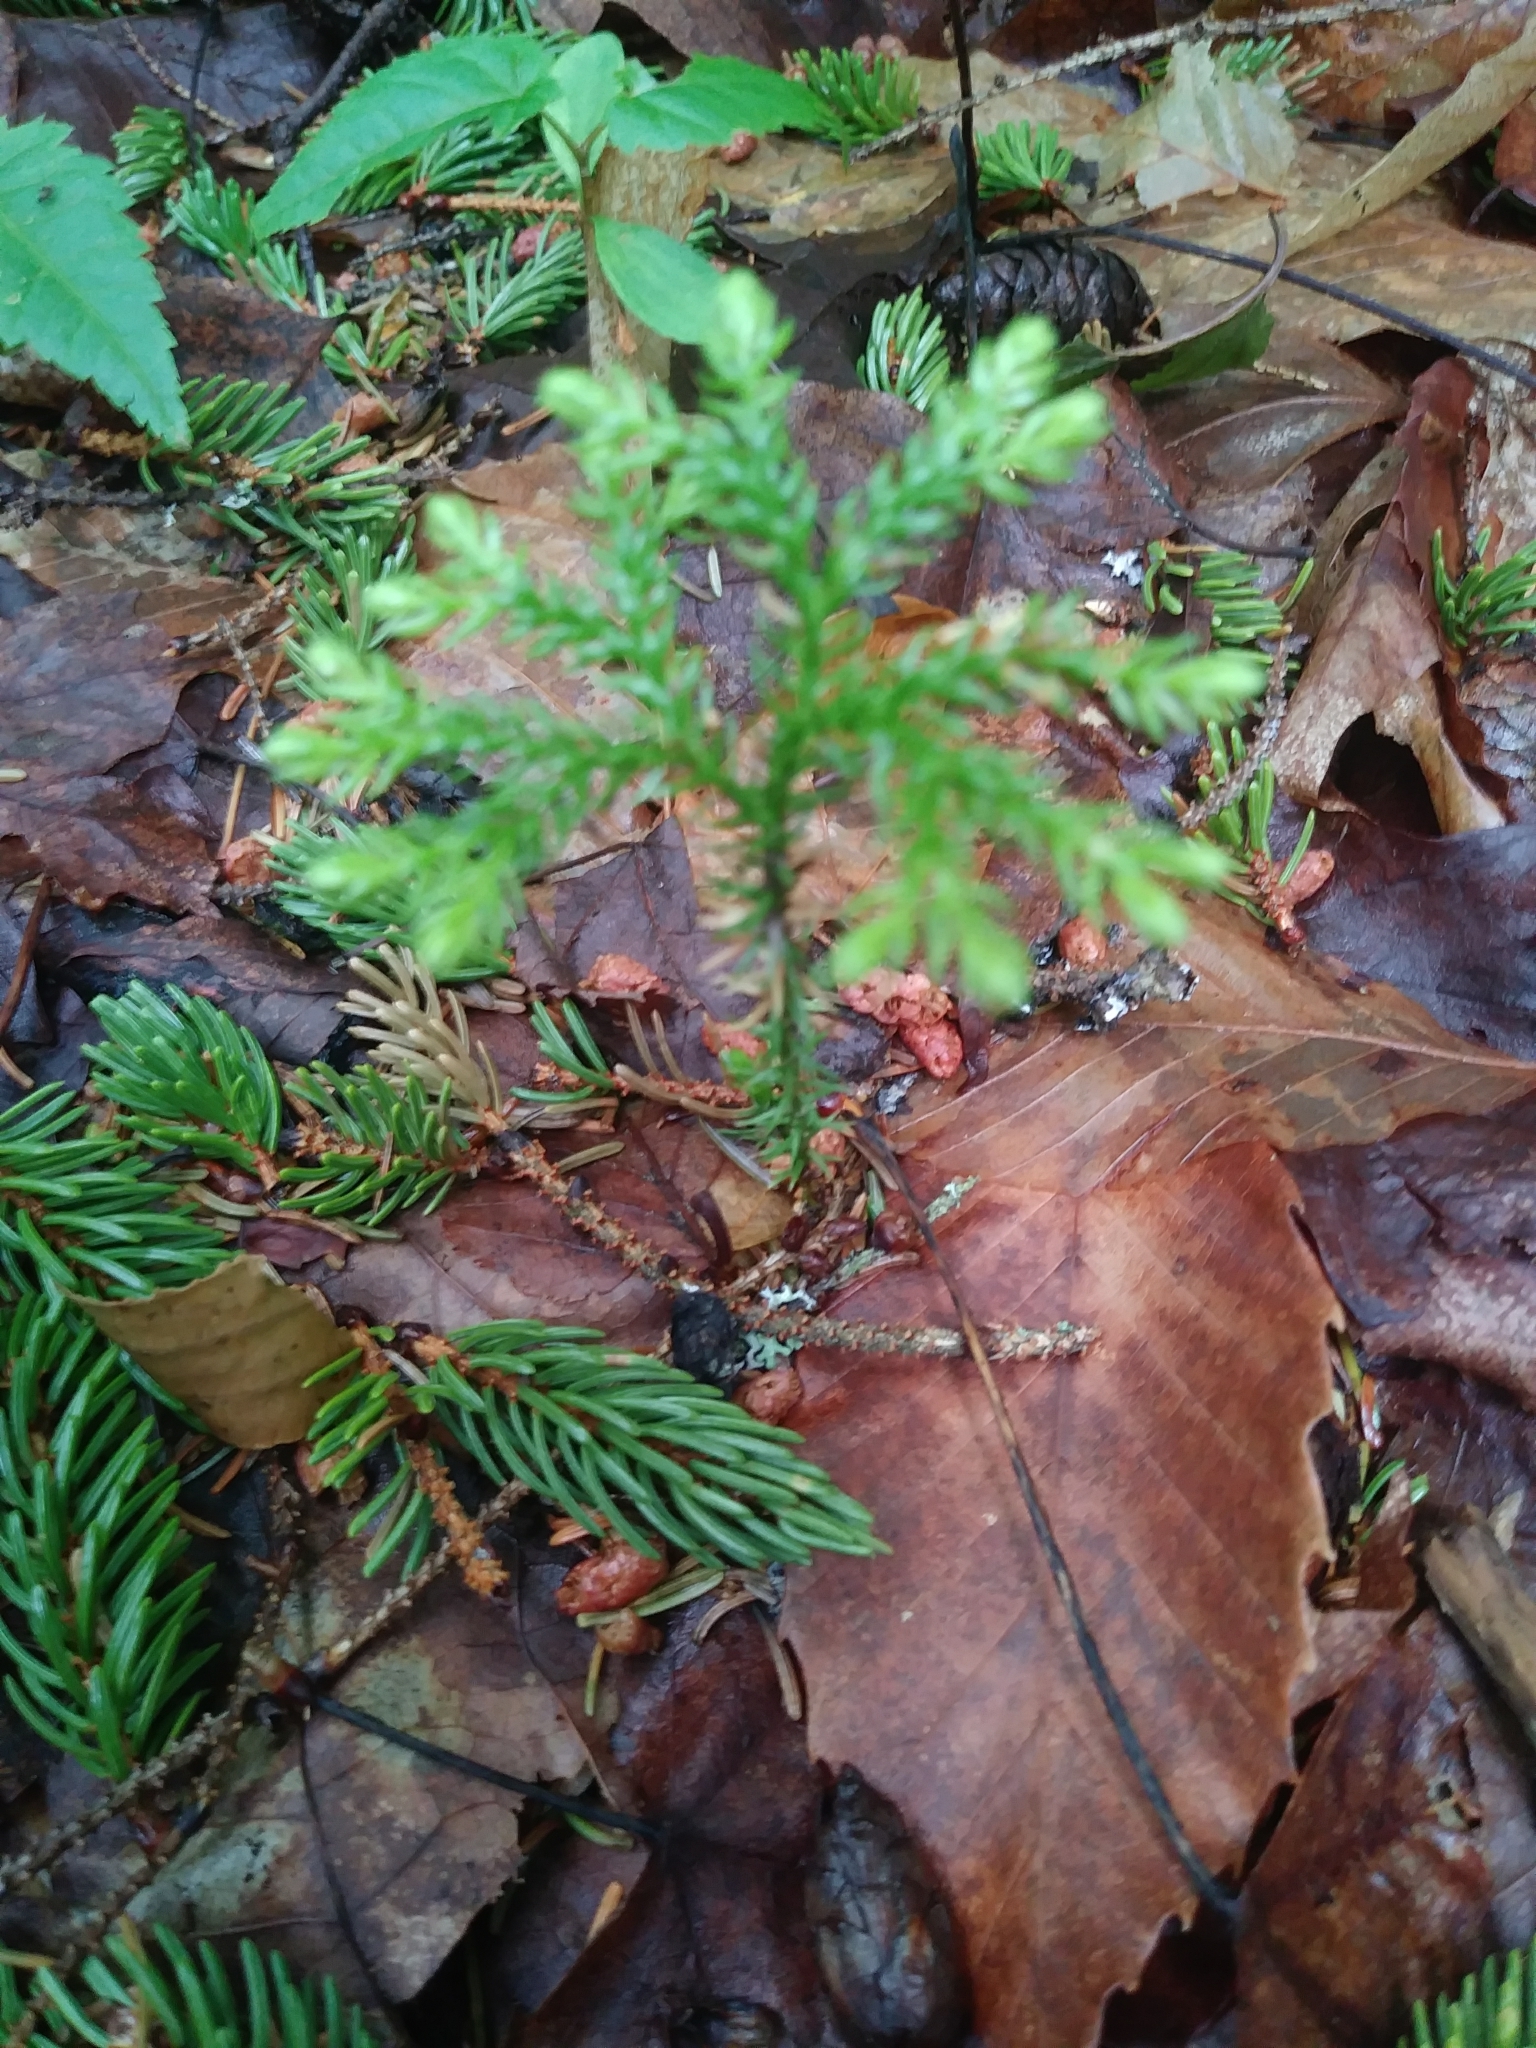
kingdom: Plantae
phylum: Tracheophyta
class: Lycopodiopsida
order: Lycopodiales
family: Lycopodiaceae
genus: Dendrolycopodium
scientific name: Dendrolycopodium dendroideum
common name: Northern tree-clubmoss
